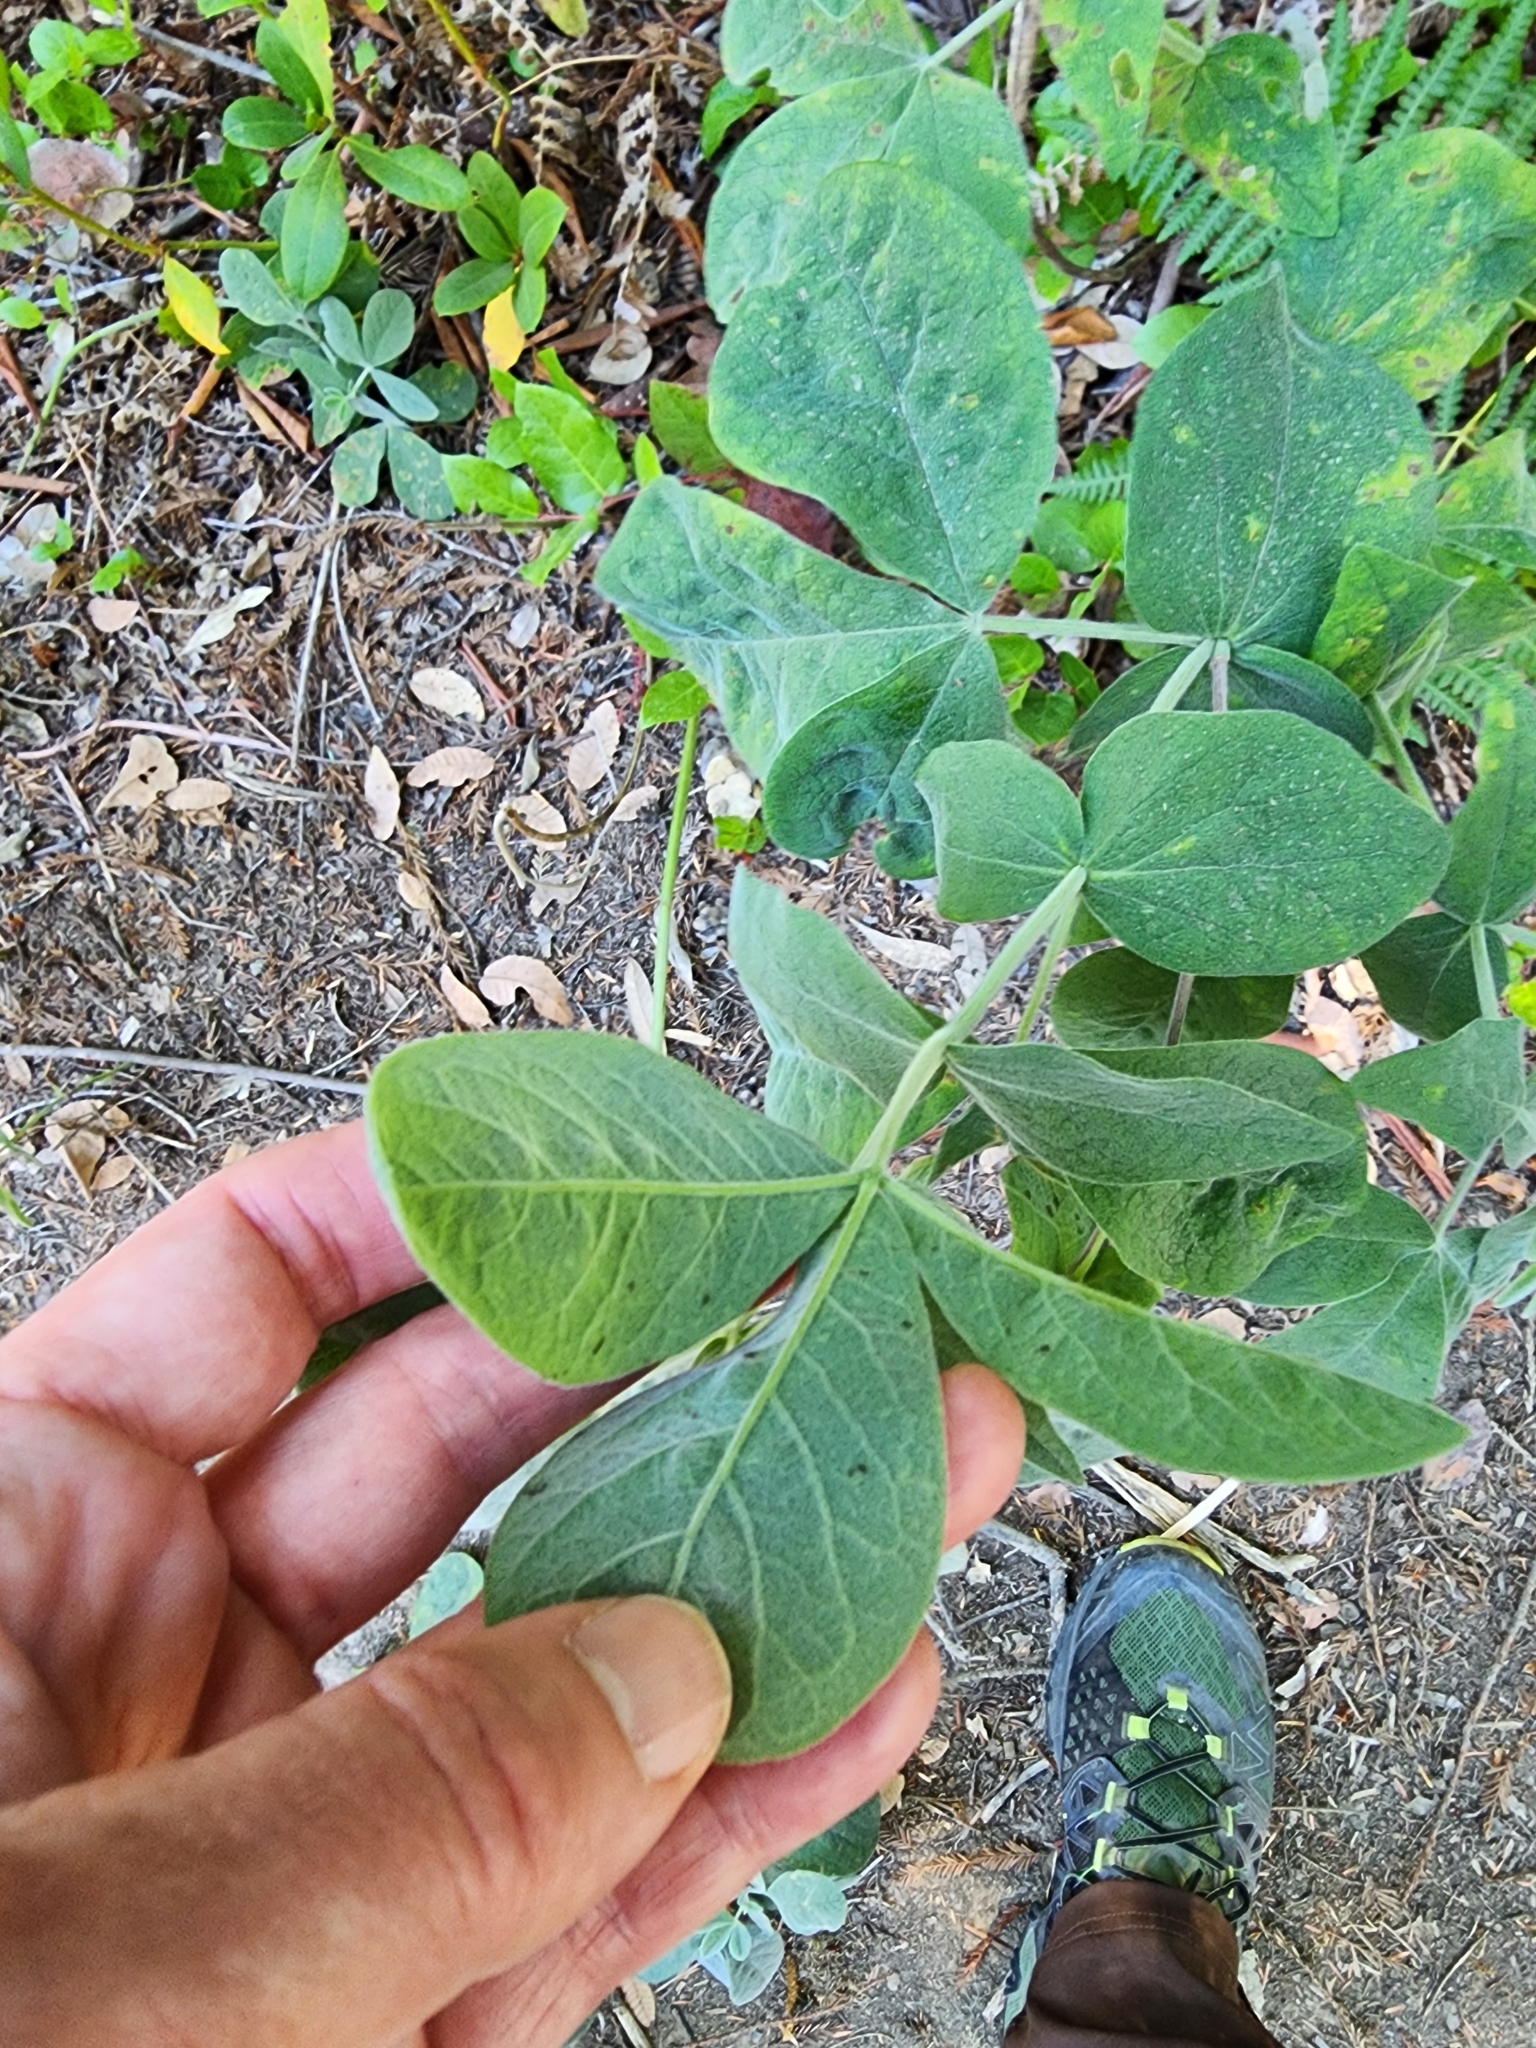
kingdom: Plantae
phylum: Tracheophyta
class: Magnoliopsida
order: Fabales
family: Fabaceae
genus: Thermopsis
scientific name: Thermopsis californica
